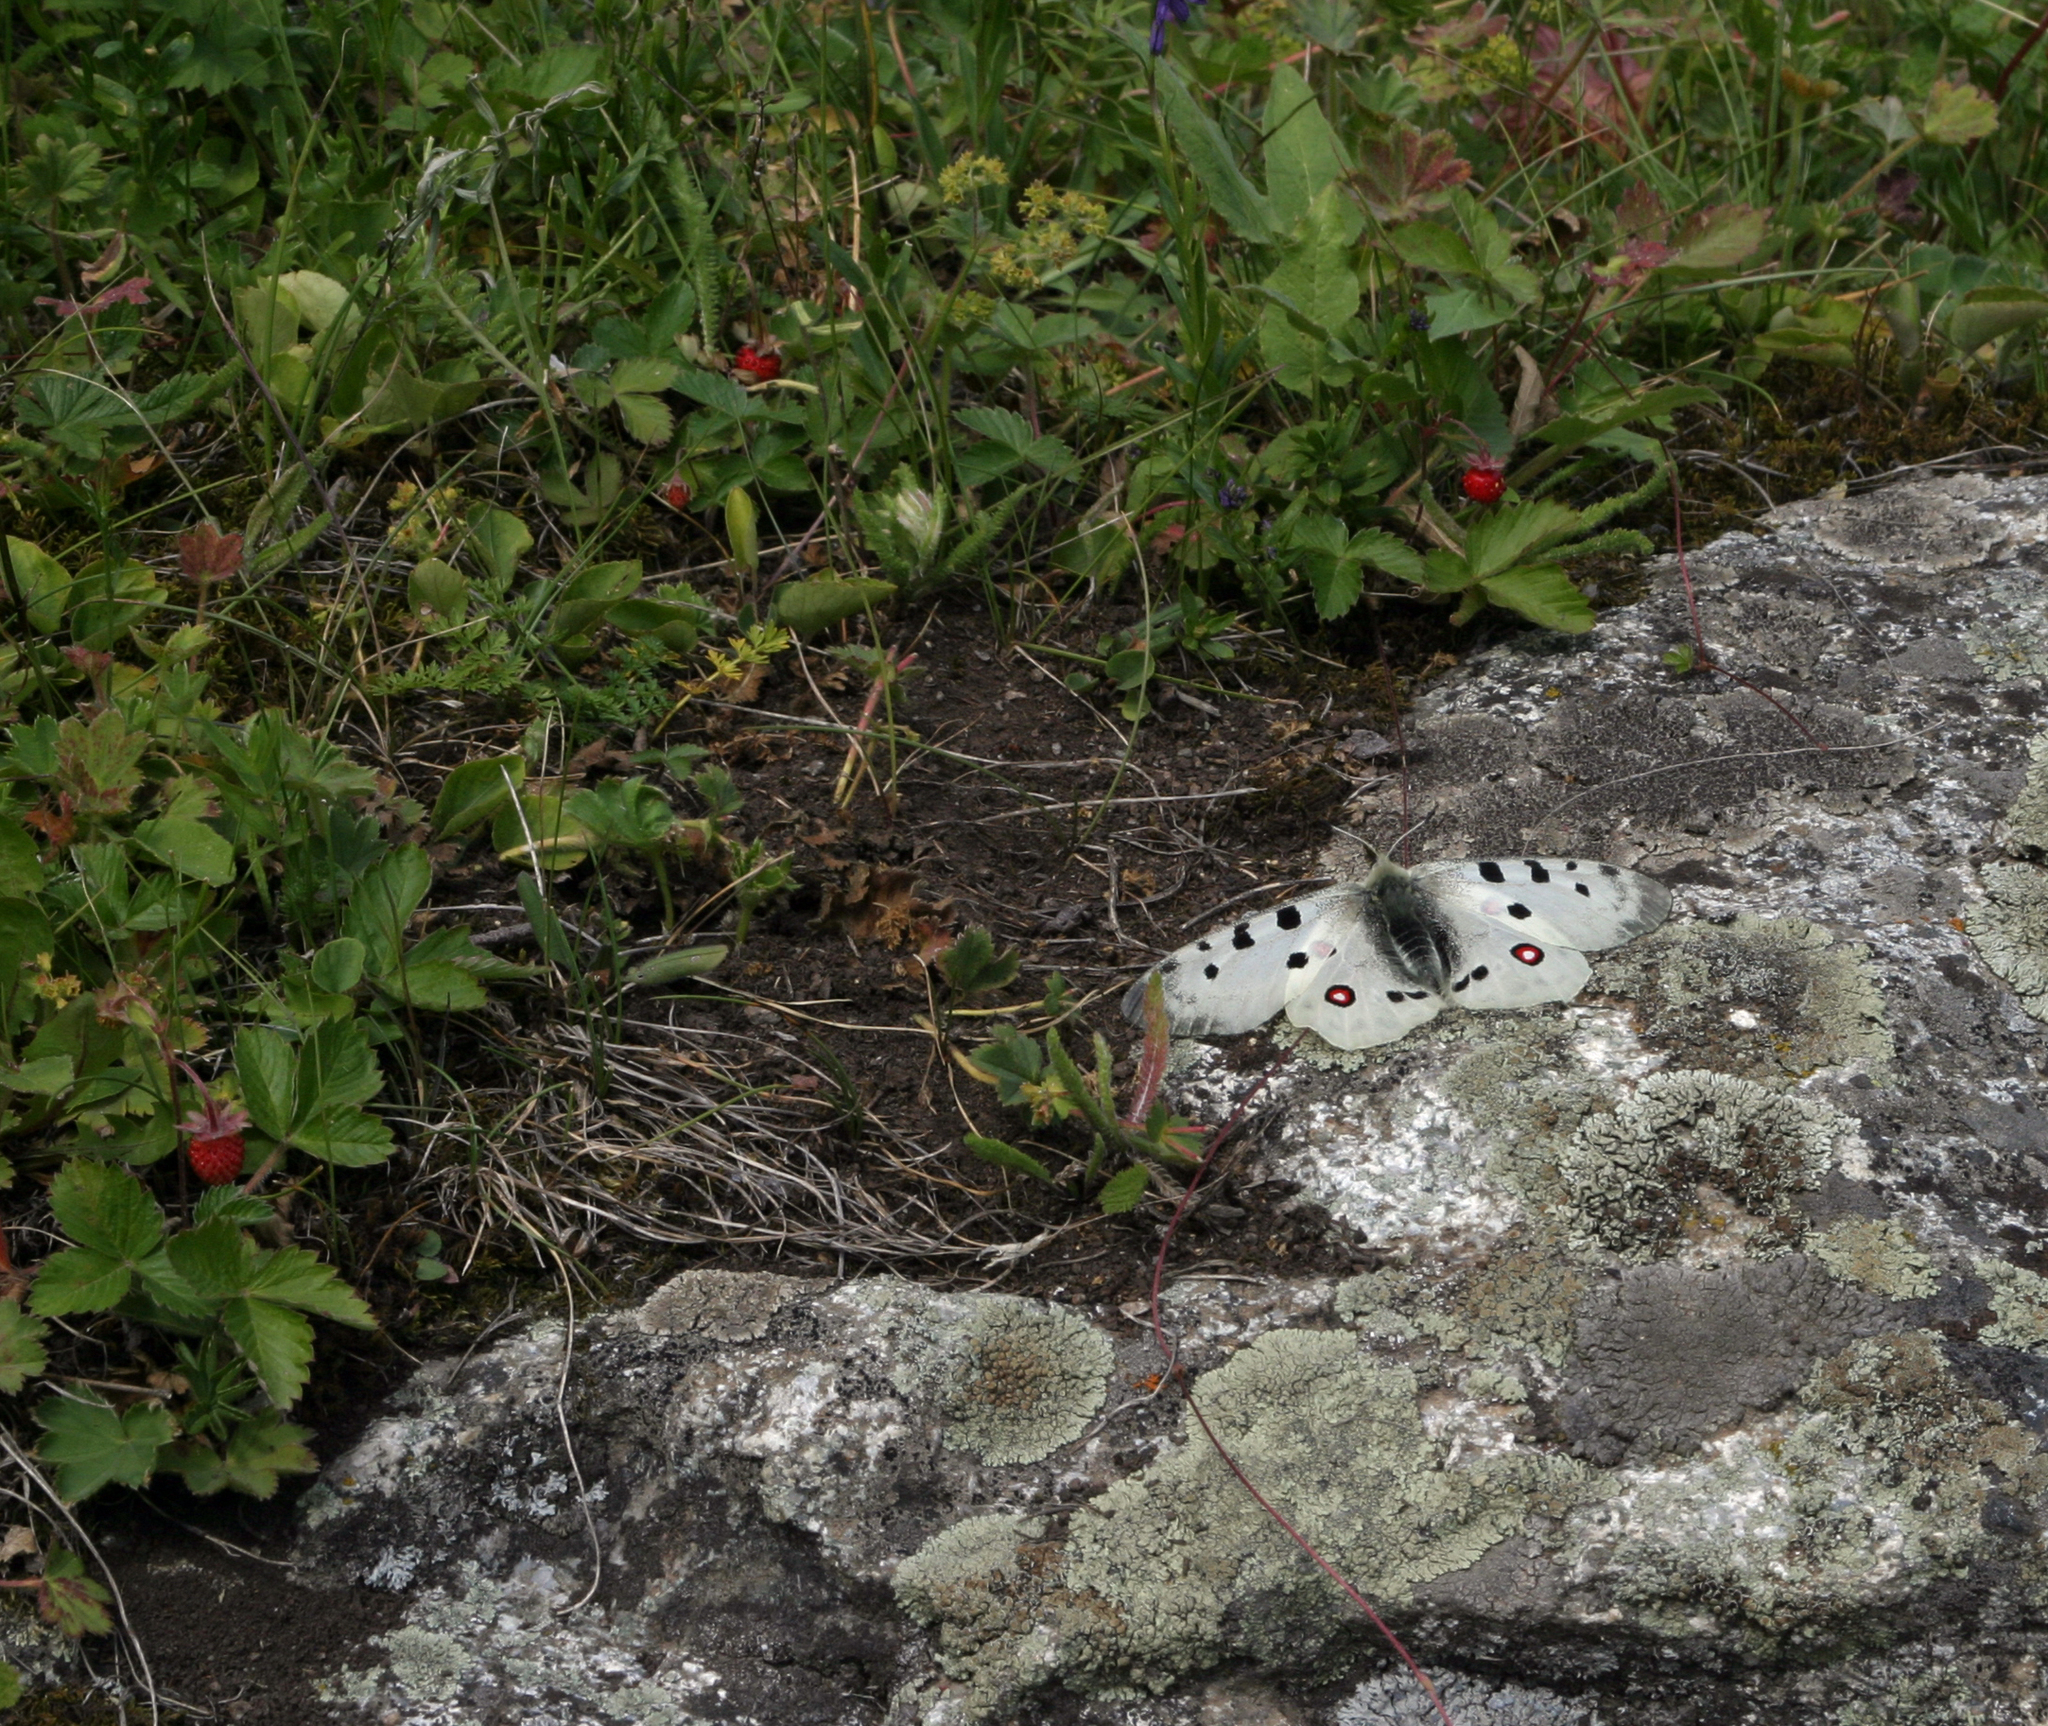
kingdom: Plantae
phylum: Tracheophyta
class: Magnoliopsida
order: Rosales
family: Rosaceae
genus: Fragaria
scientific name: Fragaria vesca
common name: Wild strawberry
